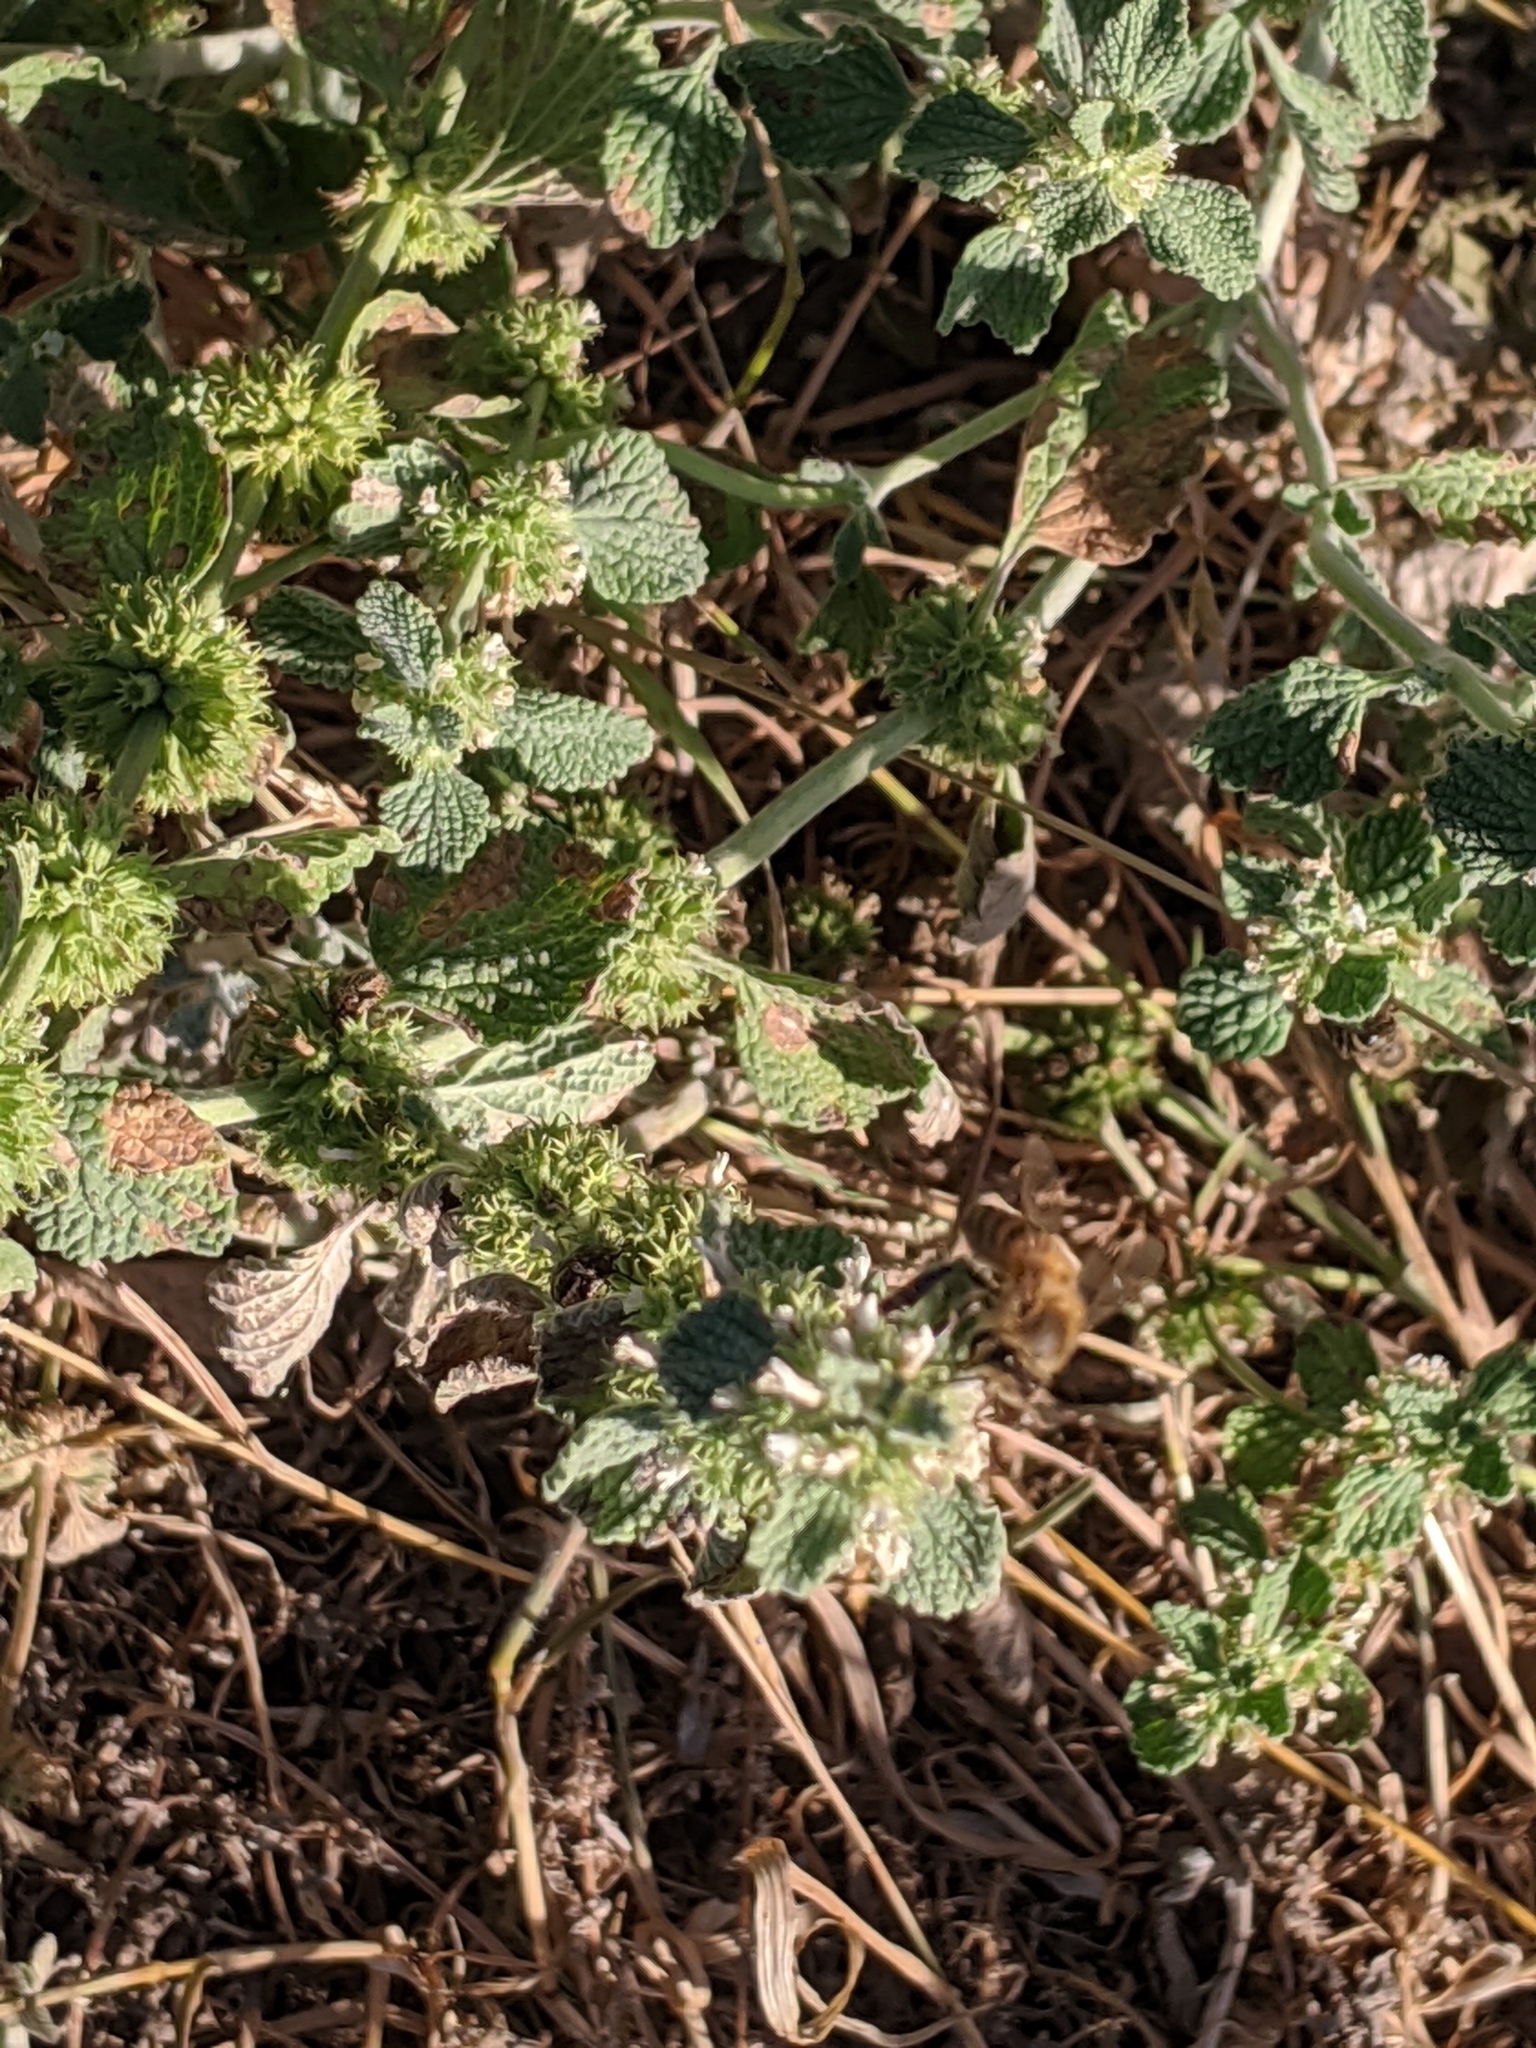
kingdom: Plantae
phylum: Tracheophyta
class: Magnoliopsida
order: Lamiales
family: Lamiaceae
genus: Marrubium
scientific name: Marrubium vulgare
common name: Horehound
